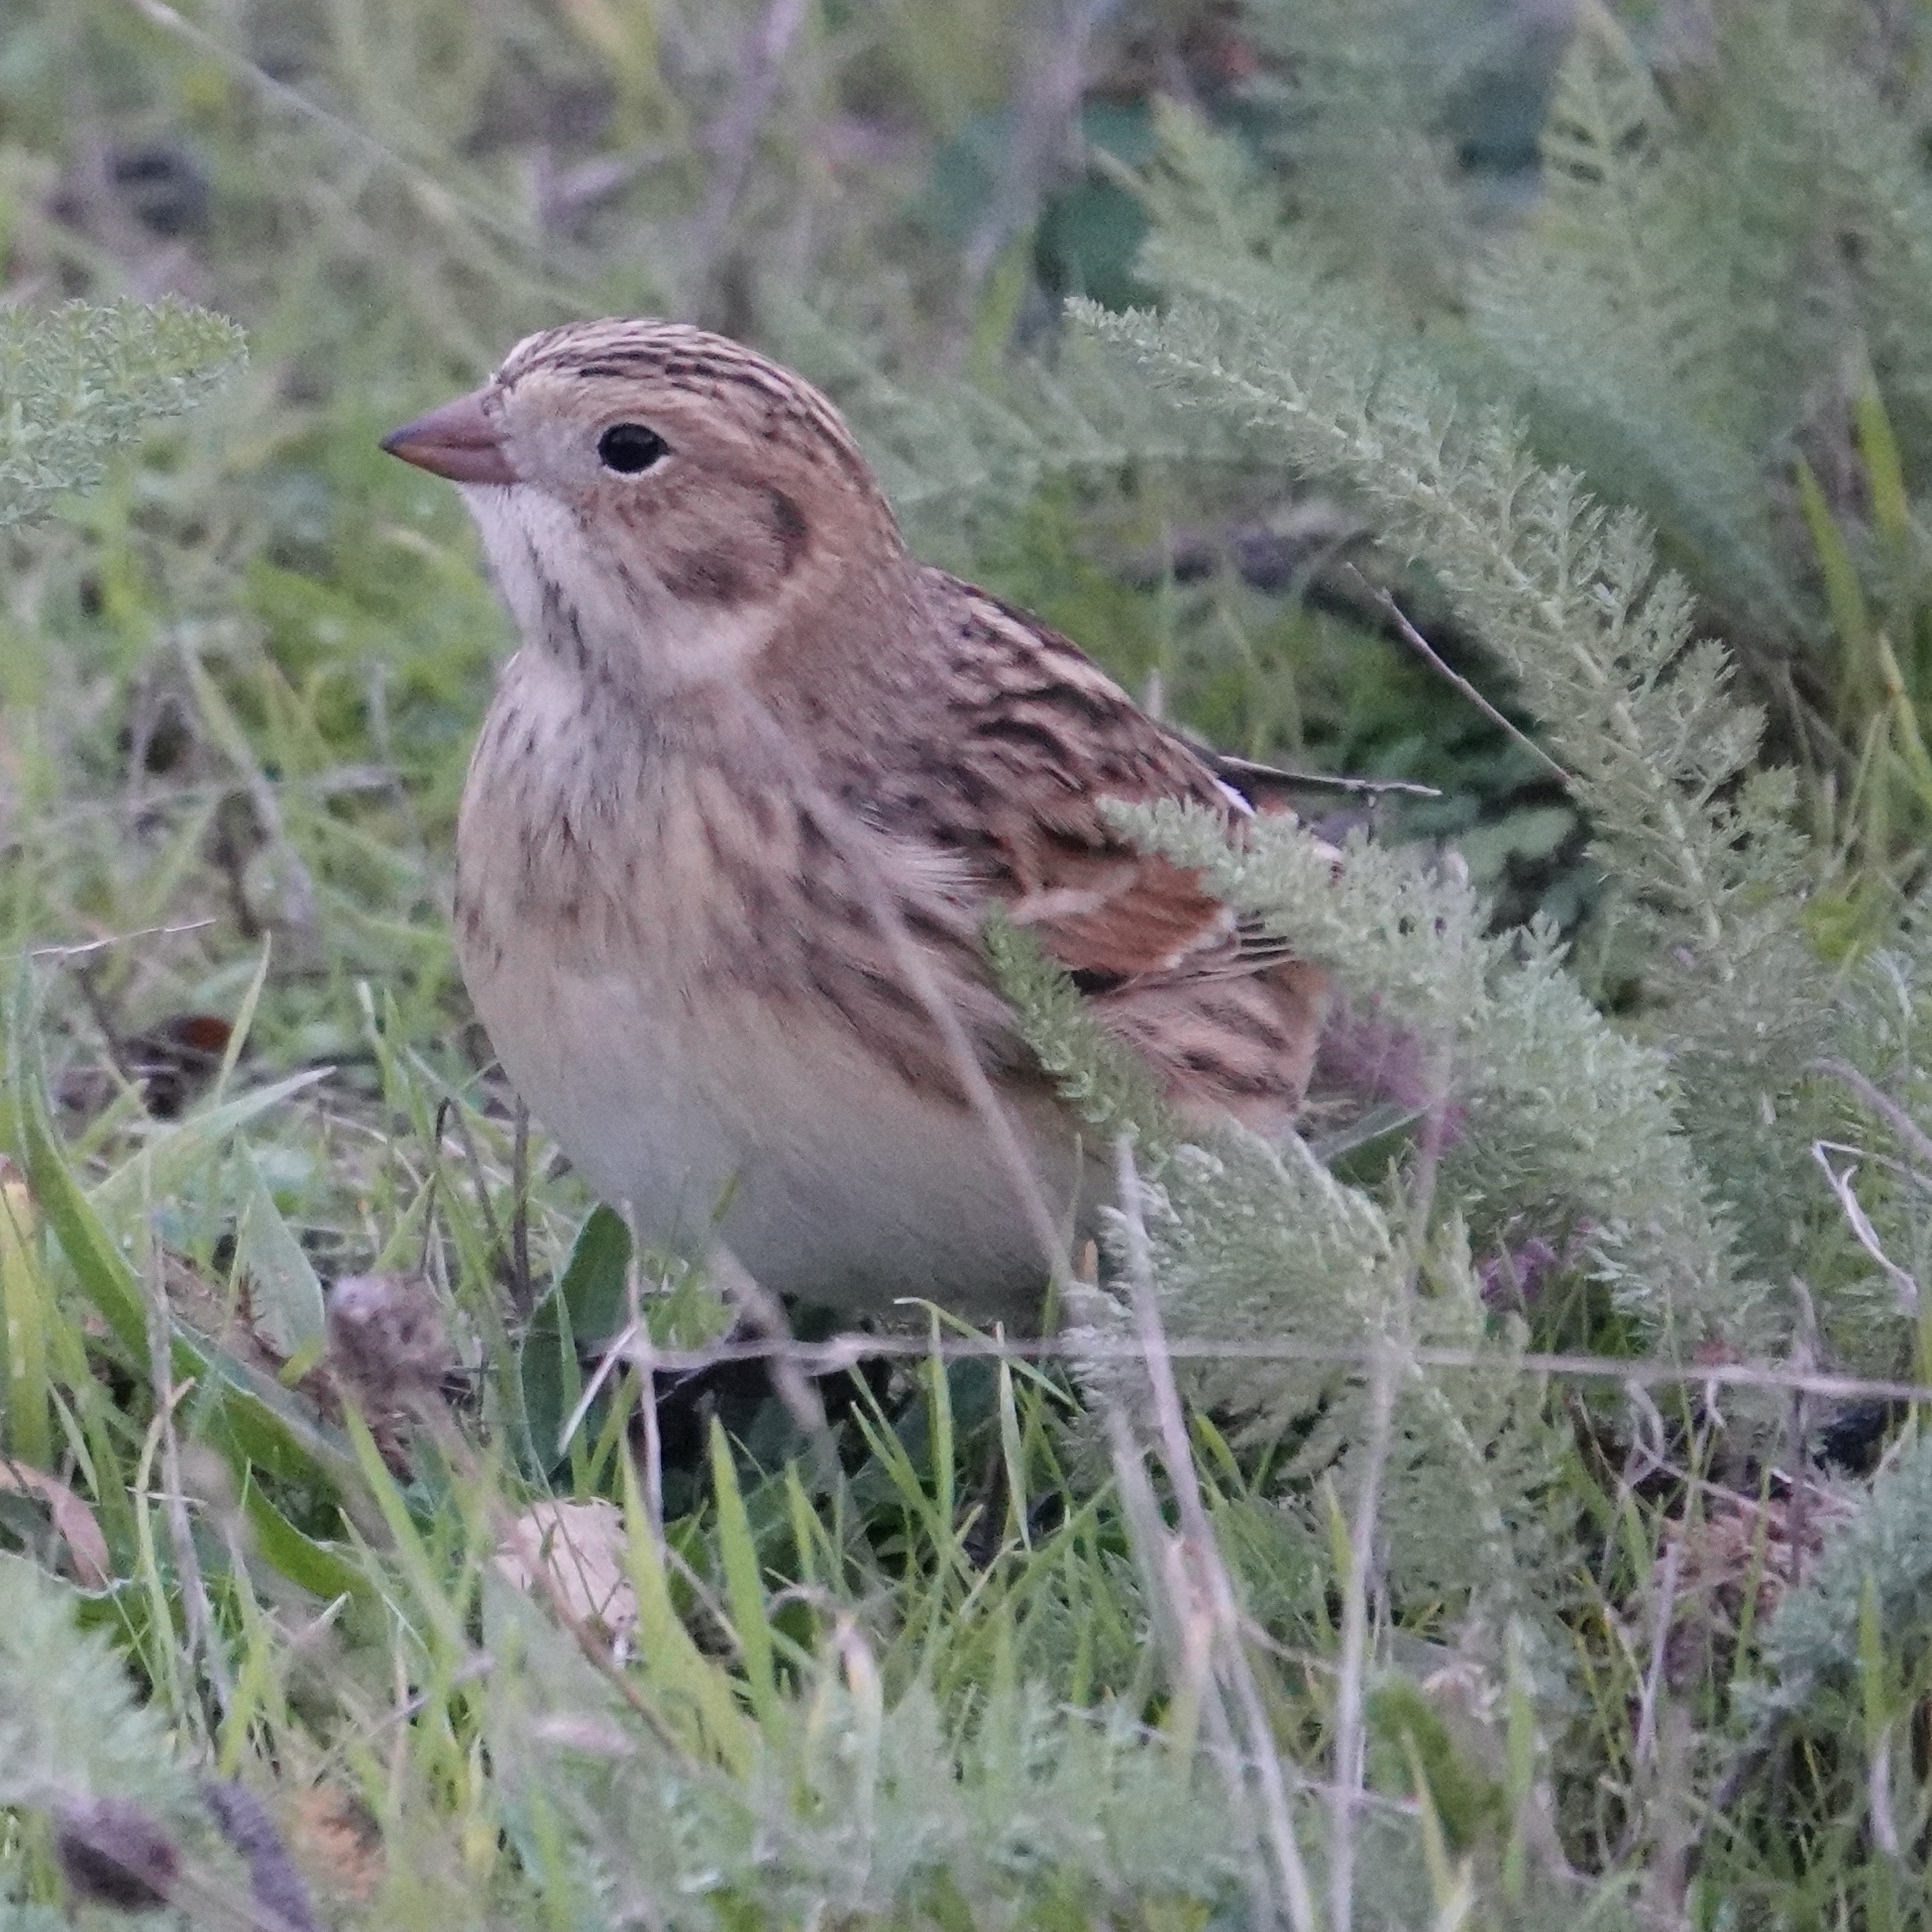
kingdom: Animalia
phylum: Chordata
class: Aves
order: Passeriformes
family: Calcariidae
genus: Calcarius
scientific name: Calcarius lapponicus
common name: Lapland longspur
